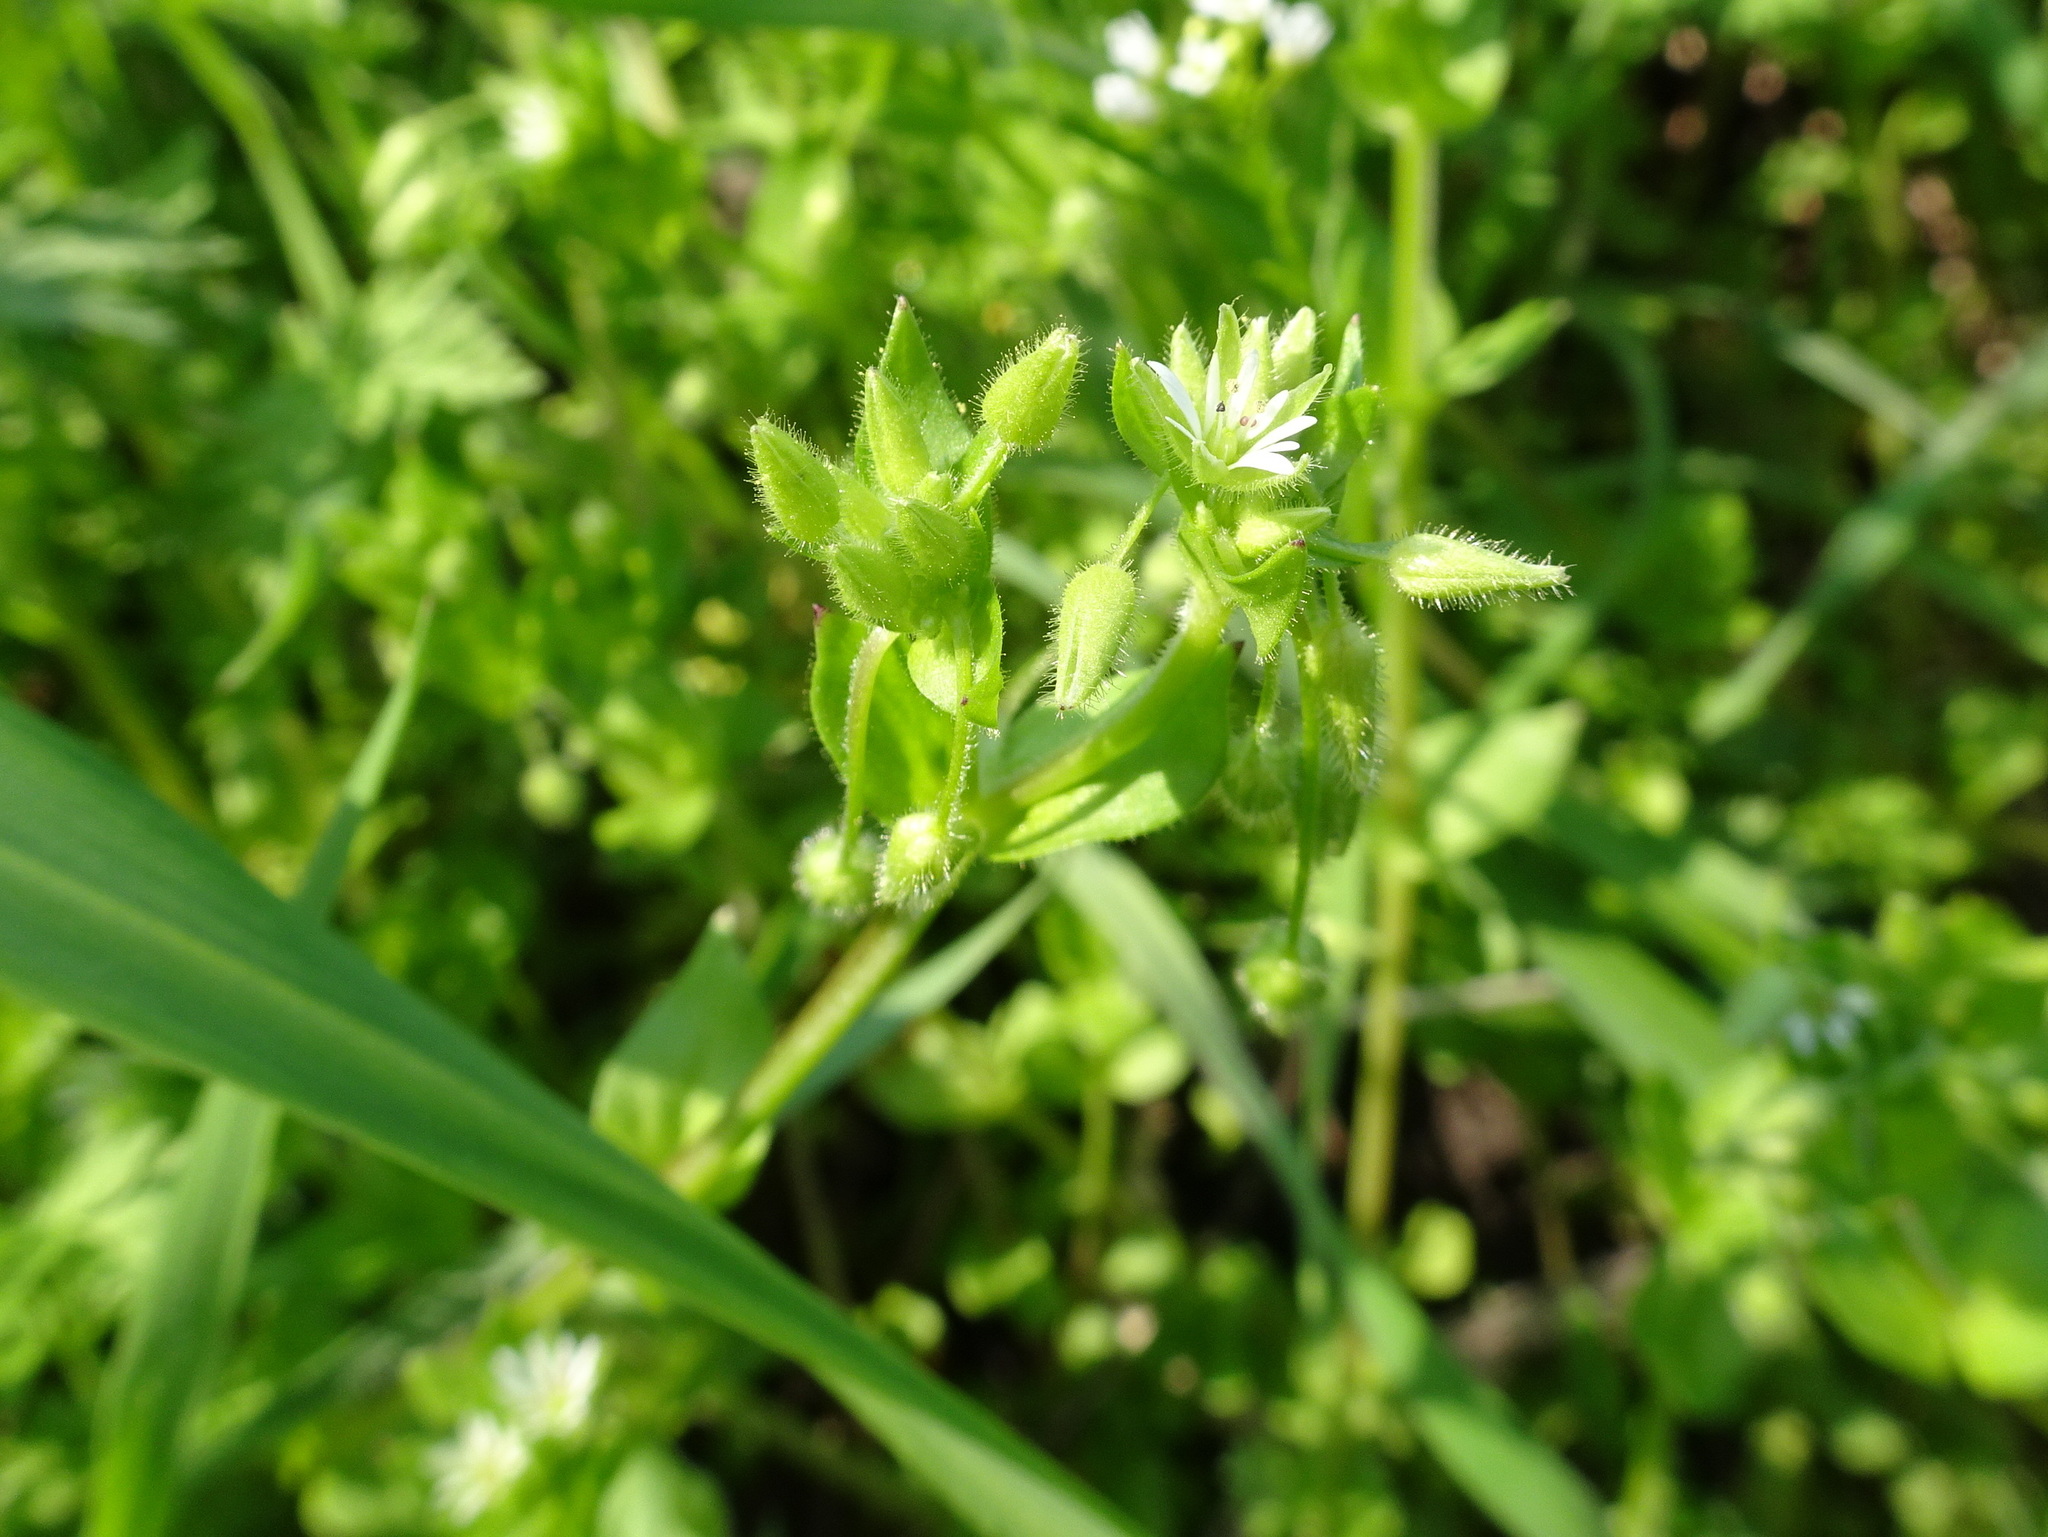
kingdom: Plantae
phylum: Tracheophyta
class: Magnoliopsida
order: Caryophyllales
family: Caryophyllaceae
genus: Stellaria
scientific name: Stellaria media
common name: Common chickweed
